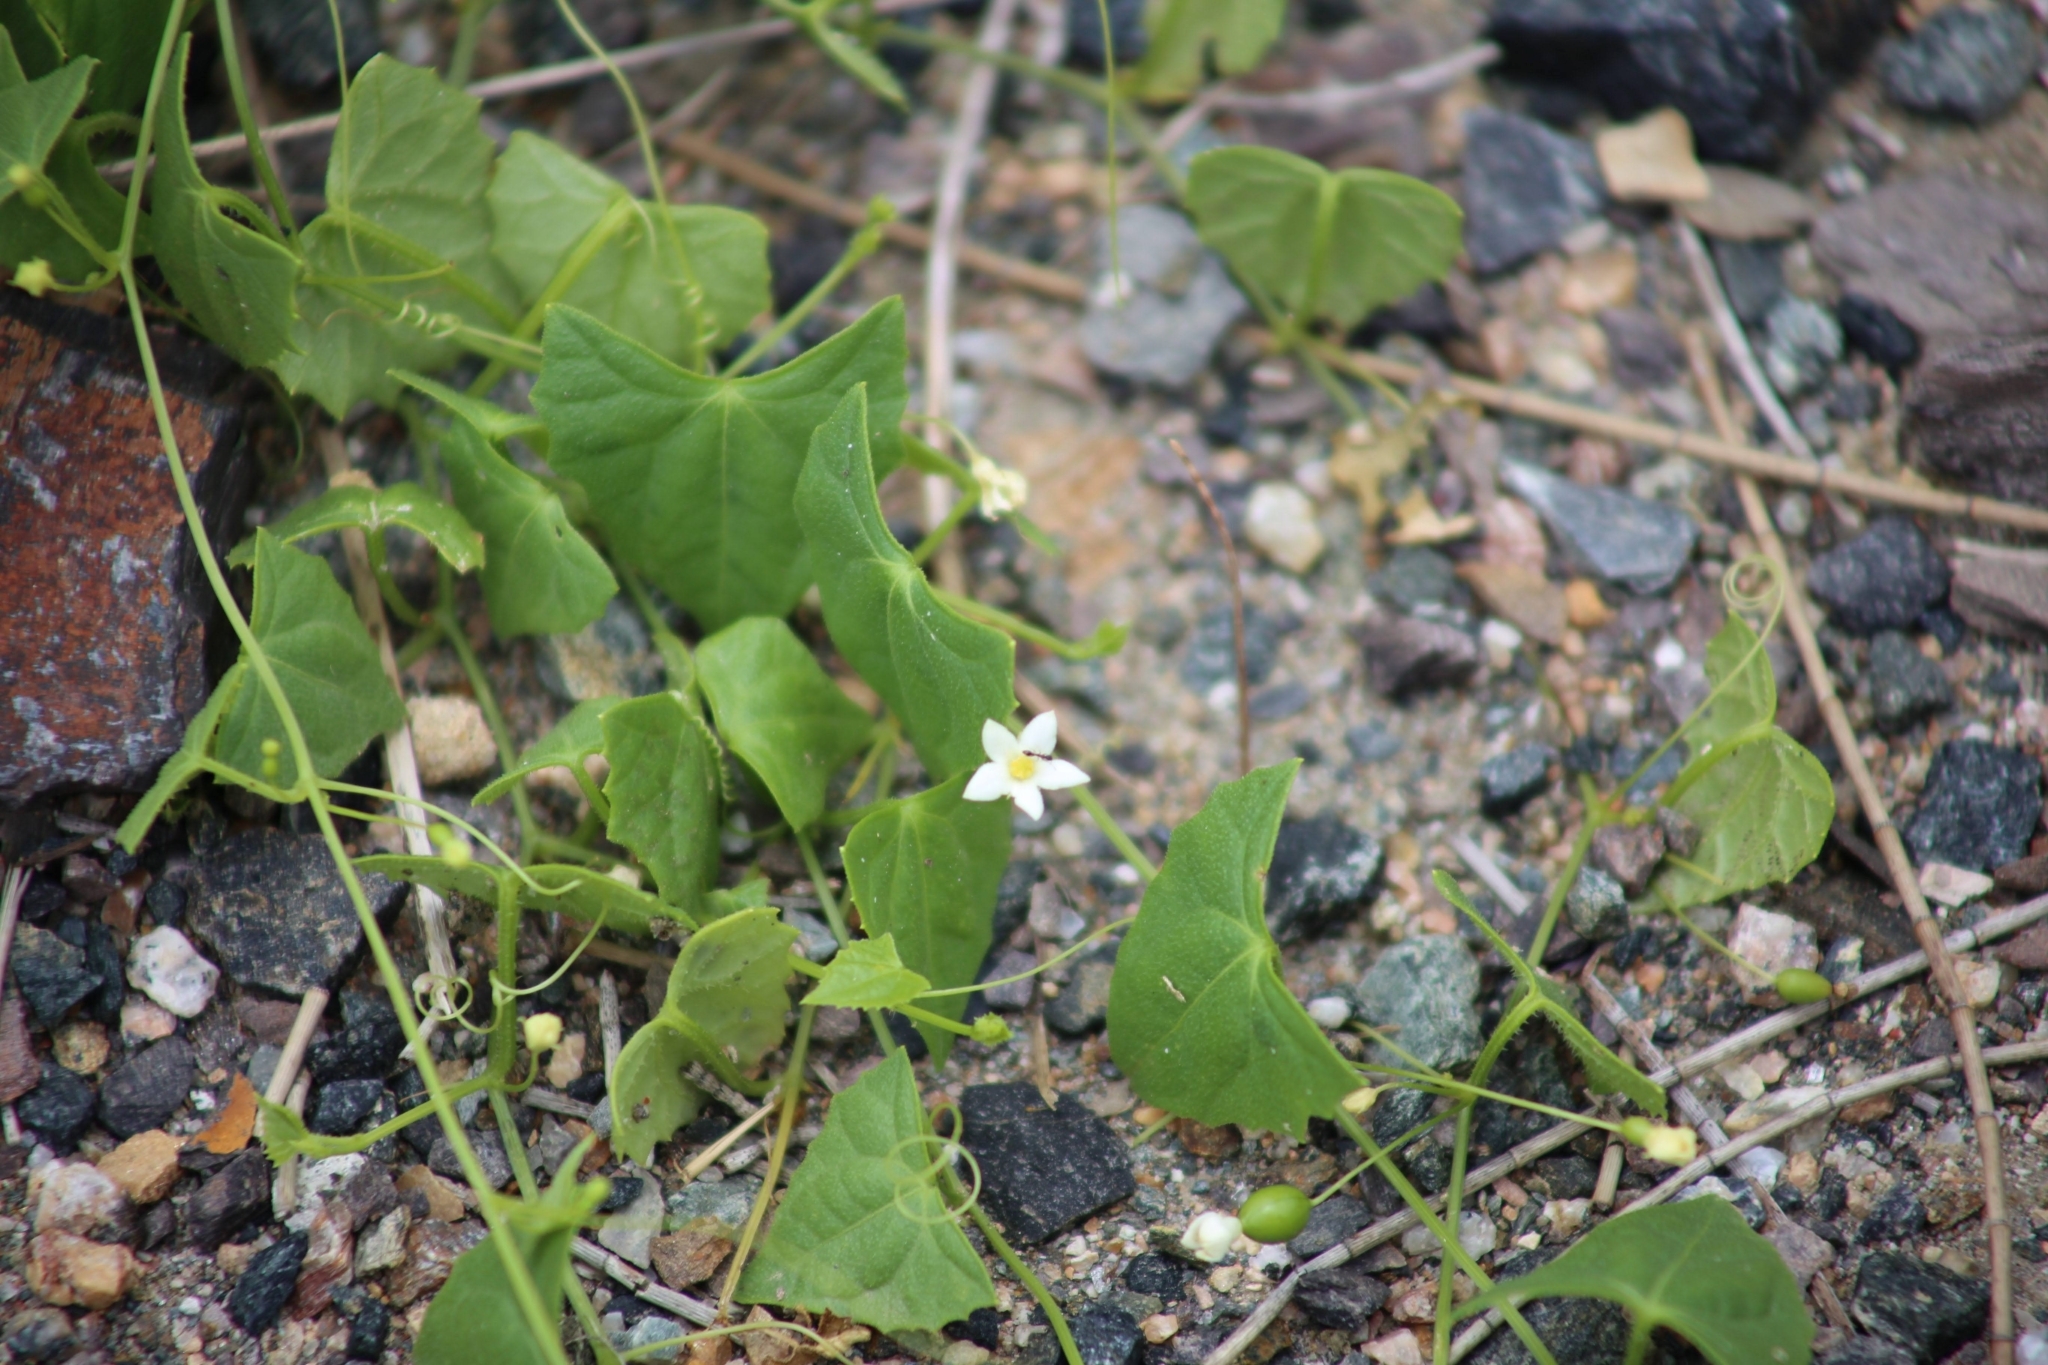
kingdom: Plantae
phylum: Tracheophyta
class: Magnoliopsida
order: Cucurbitales
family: Cucurbitaceae
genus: Zehneria
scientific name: Zehneria cunninghamii
